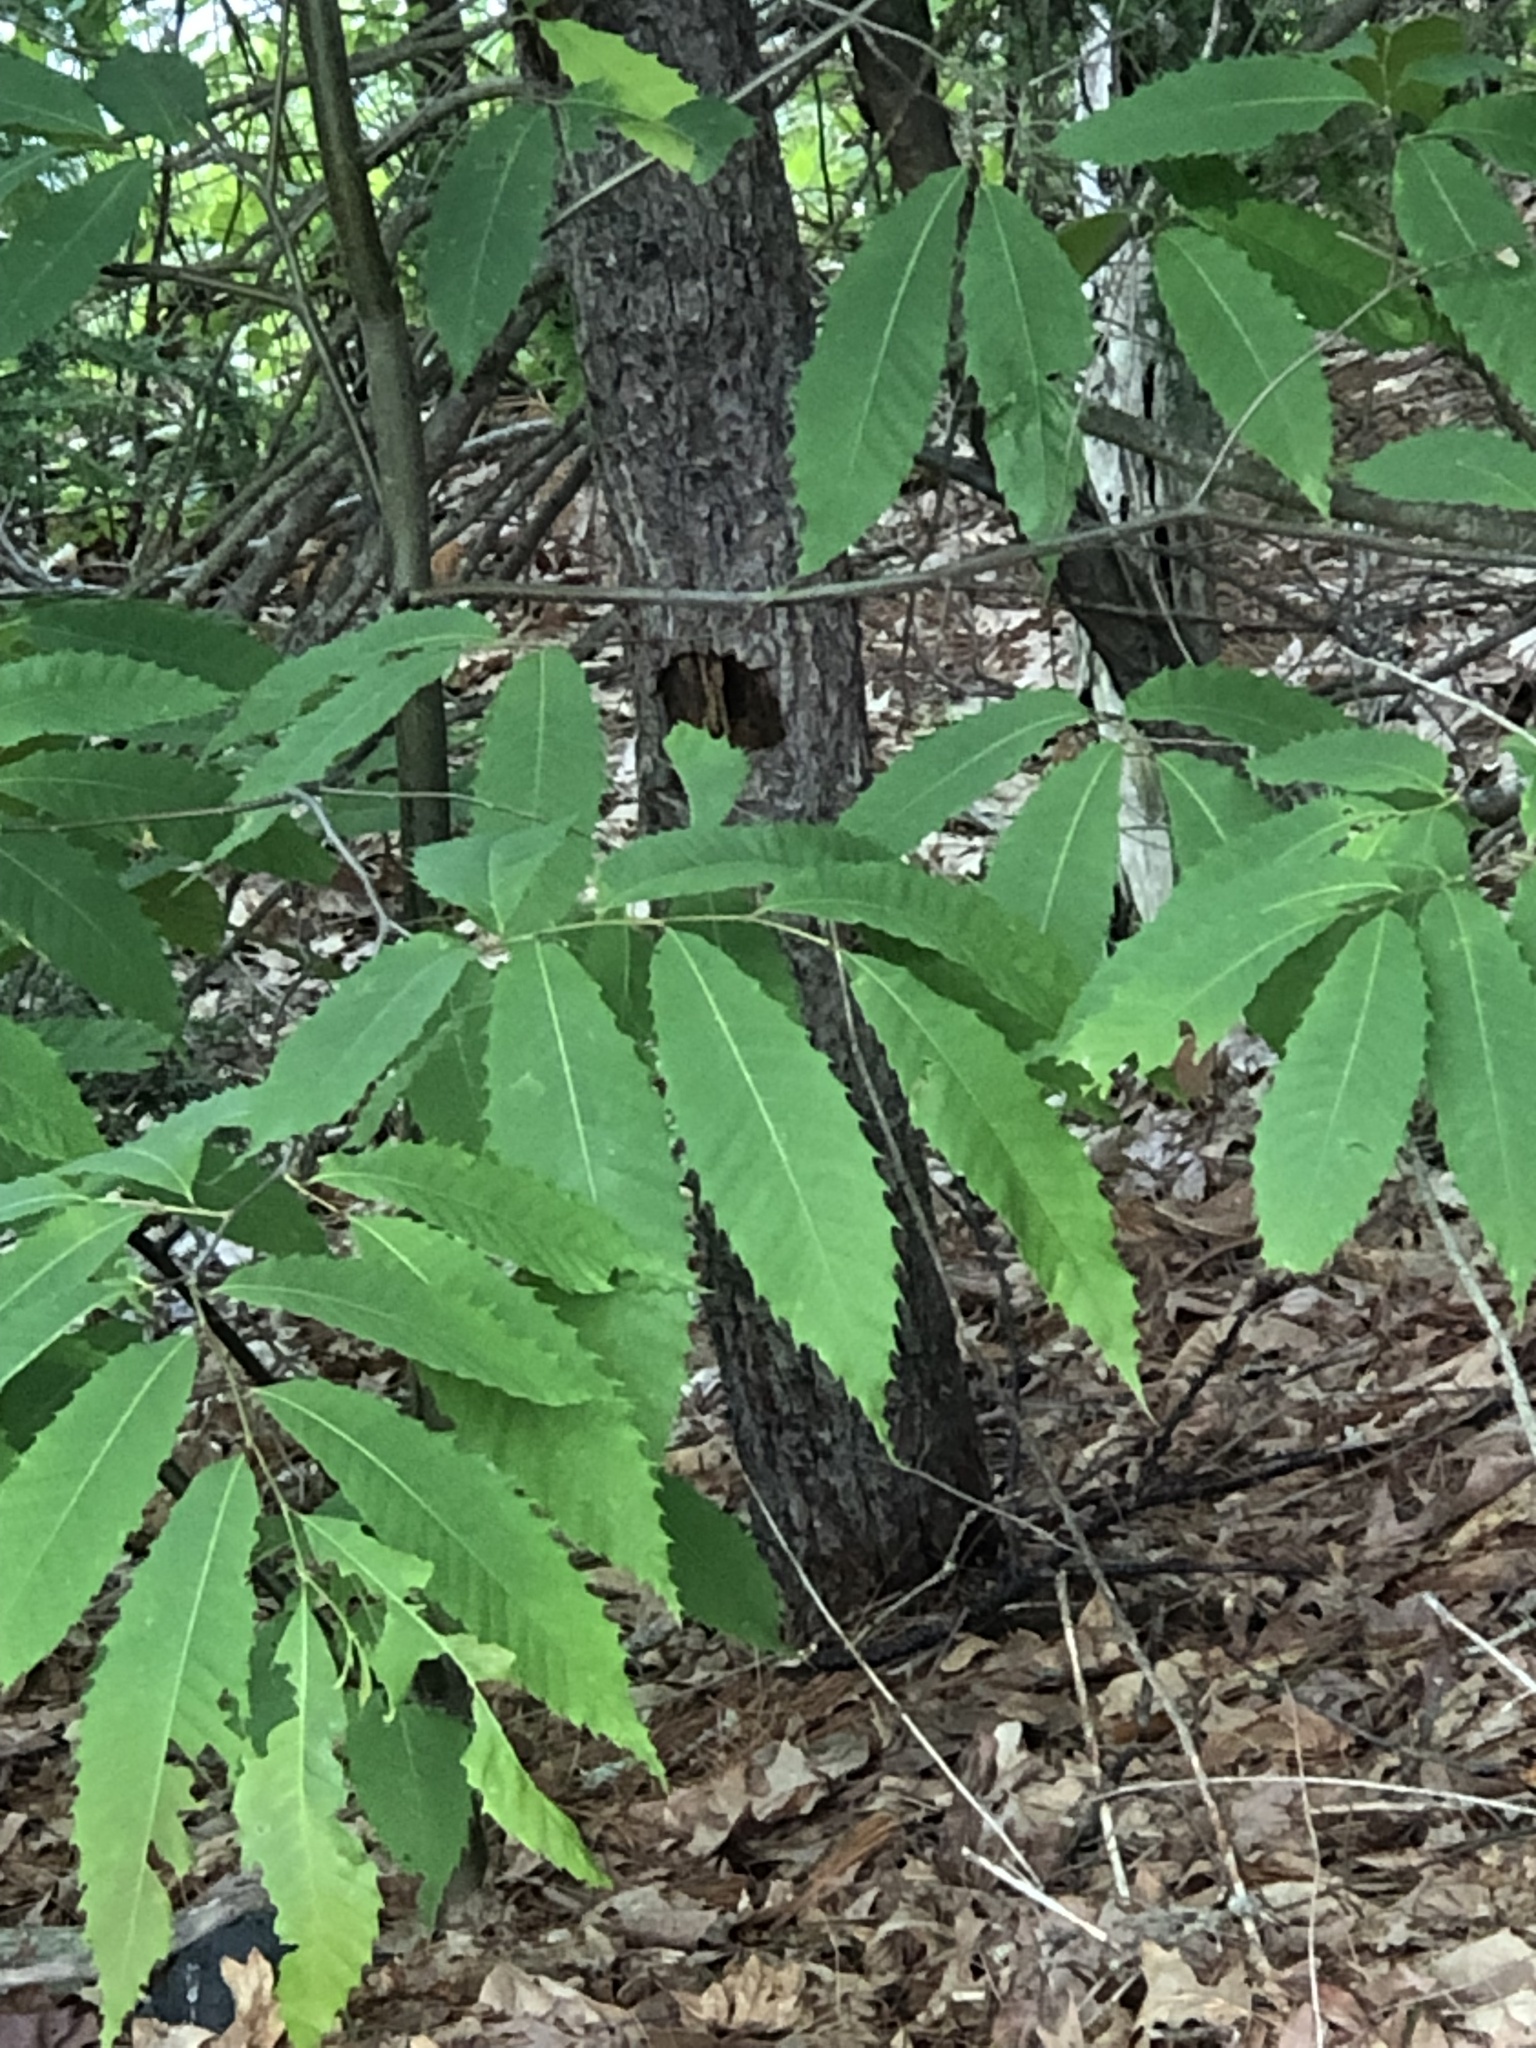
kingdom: Plantae
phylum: Tracheophyta
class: Magnoliopsida
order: Fagales
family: Fagaceae
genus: Castanea
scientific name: Castanea dentata
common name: American chestnut
